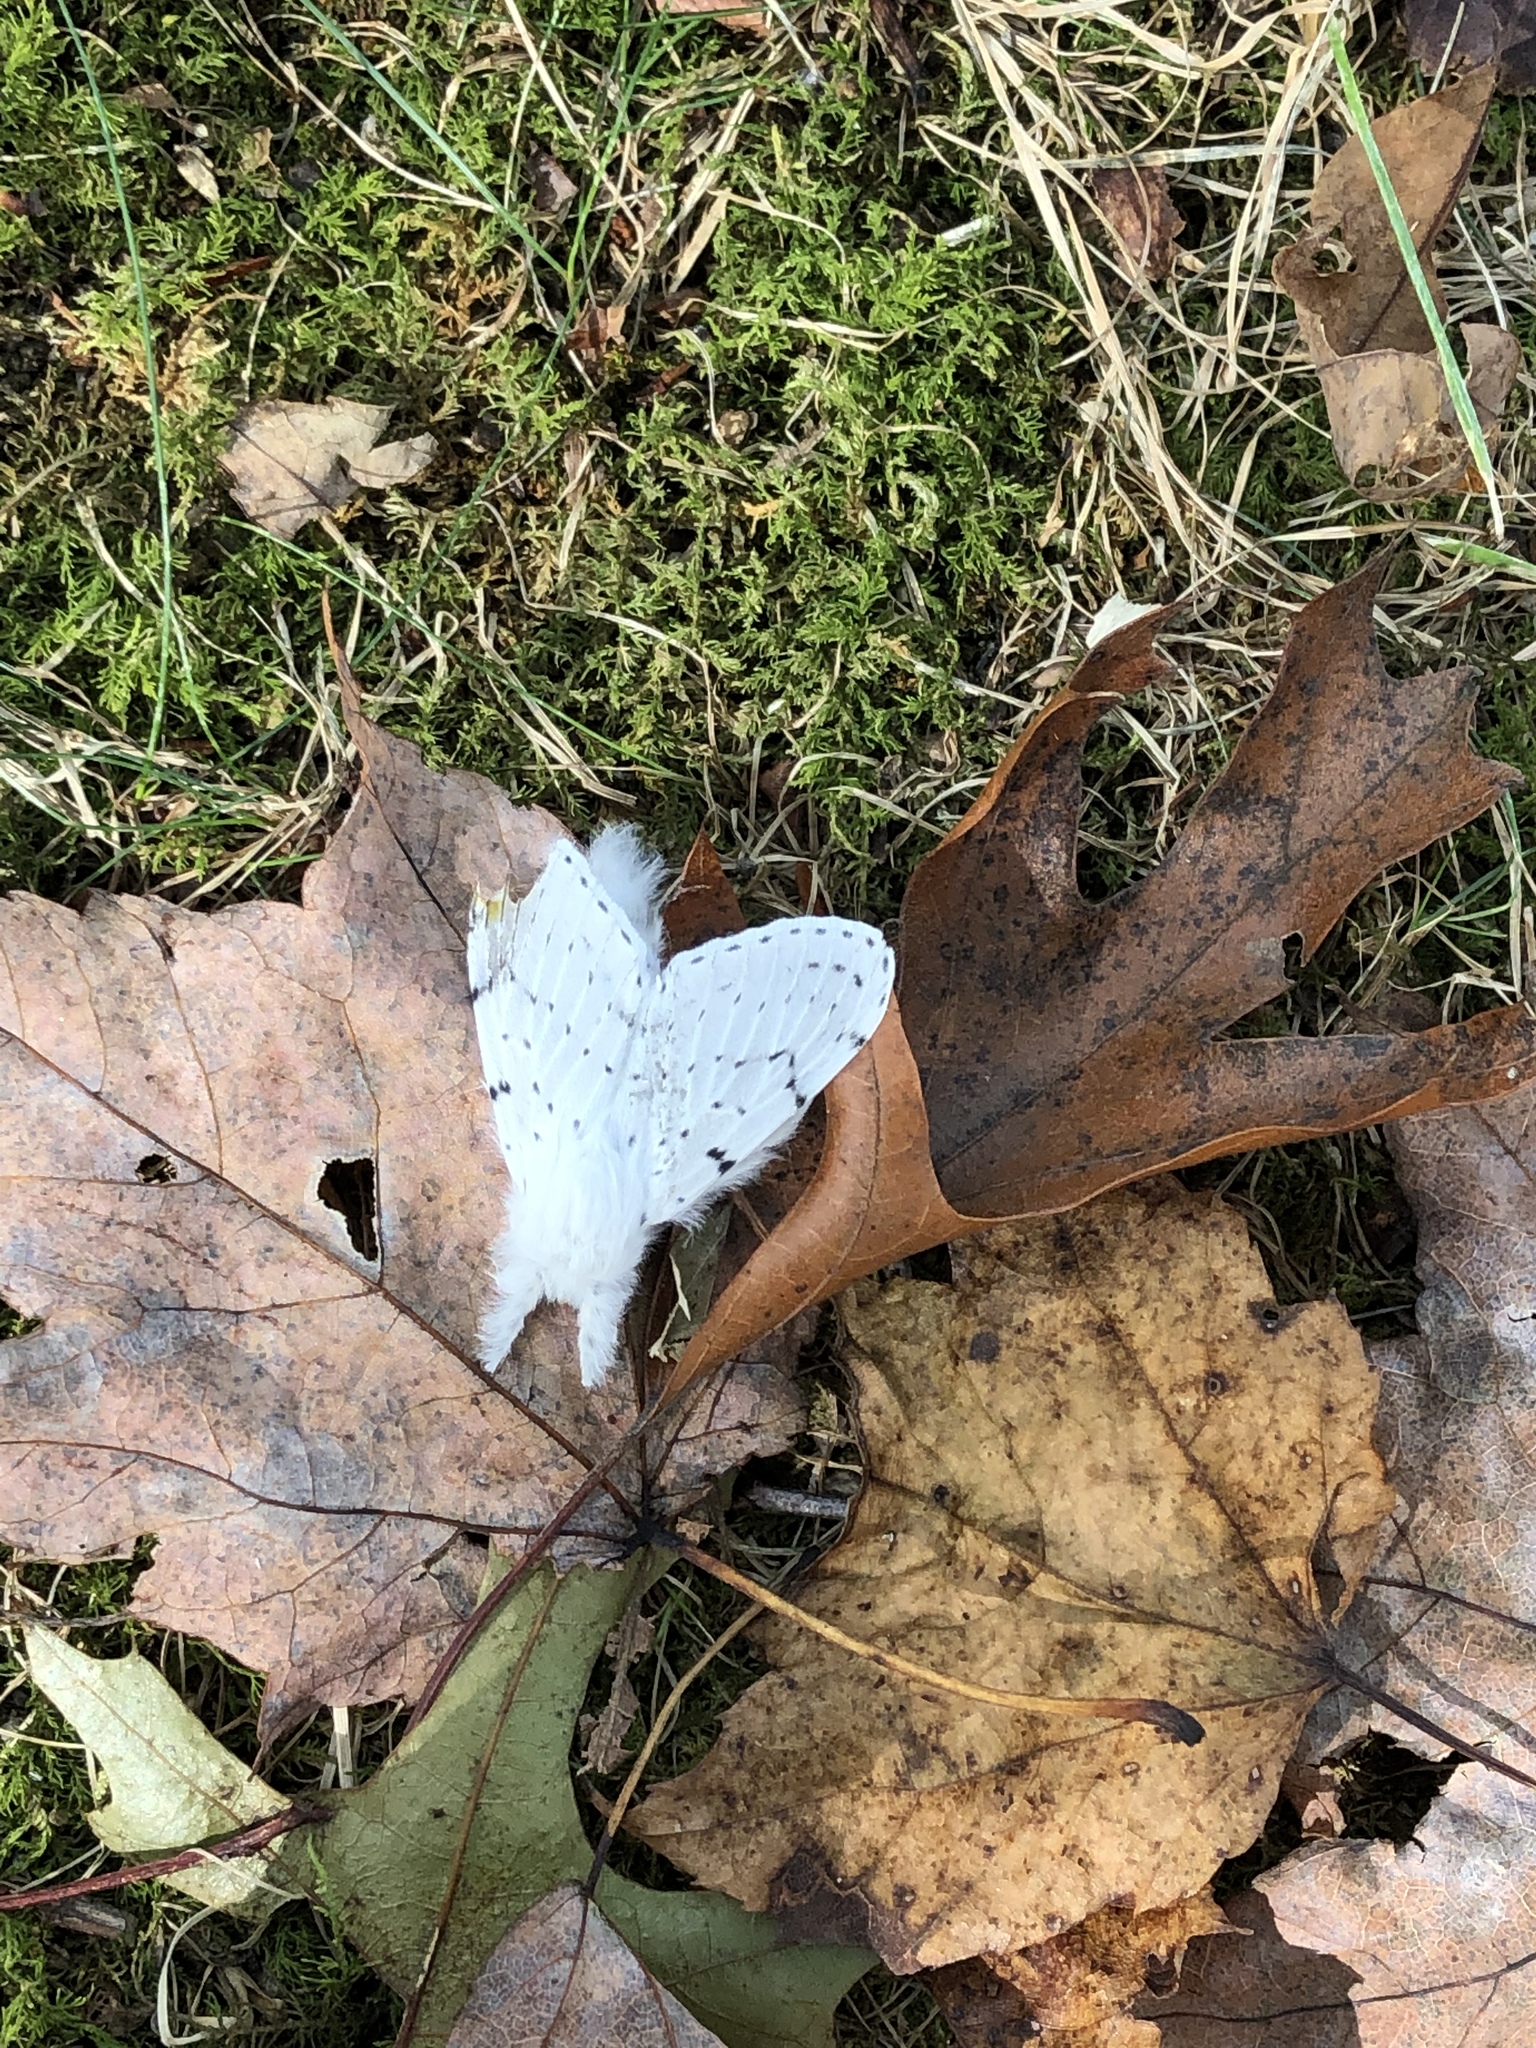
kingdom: Animalia
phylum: Arthropoda
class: Insecta
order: Lepidoptera
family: Lasiocampidae
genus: Artace
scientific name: Artace cribrarius
